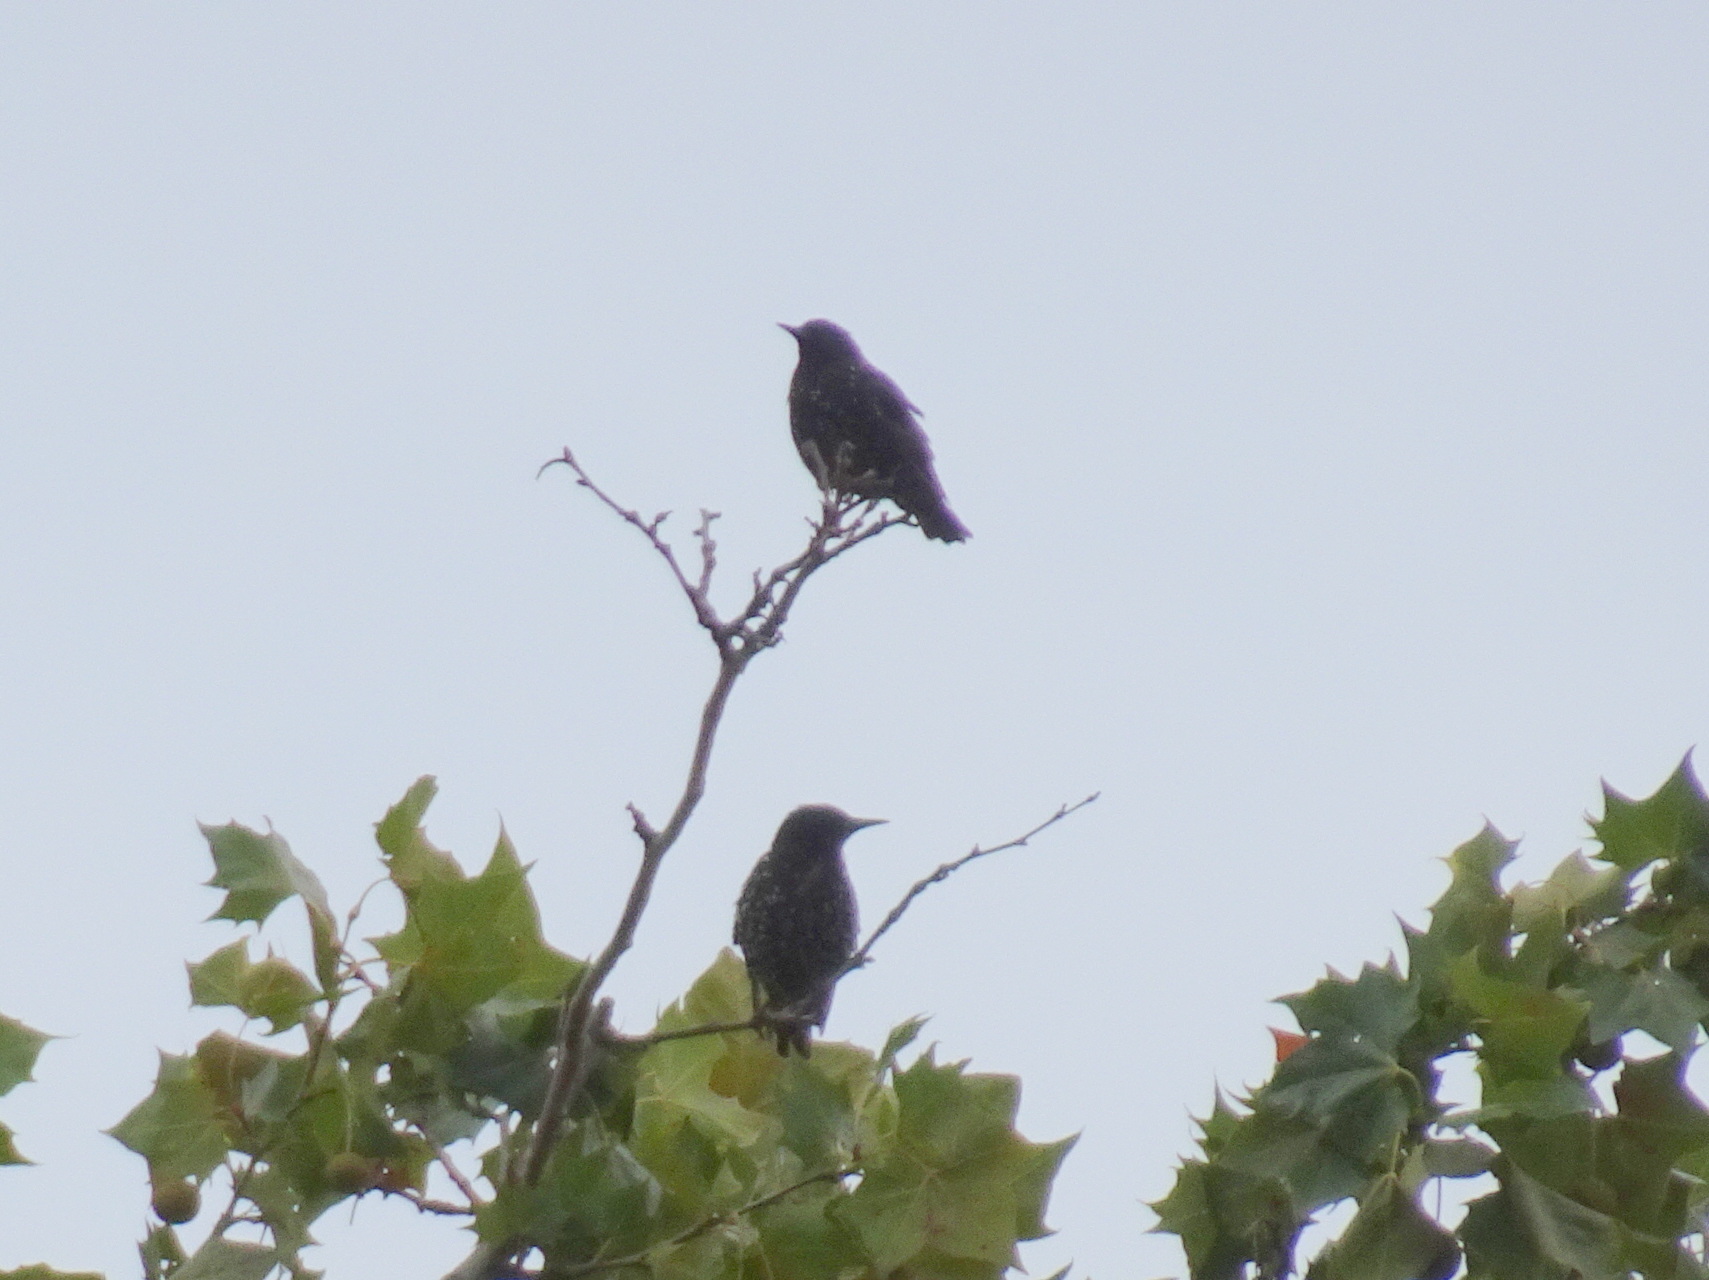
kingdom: Animalia
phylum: Chordata
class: Aves
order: Passeriformes
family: Sturnidae
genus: Sturnus
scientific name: Sturnus vulgaris
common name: Common starling
